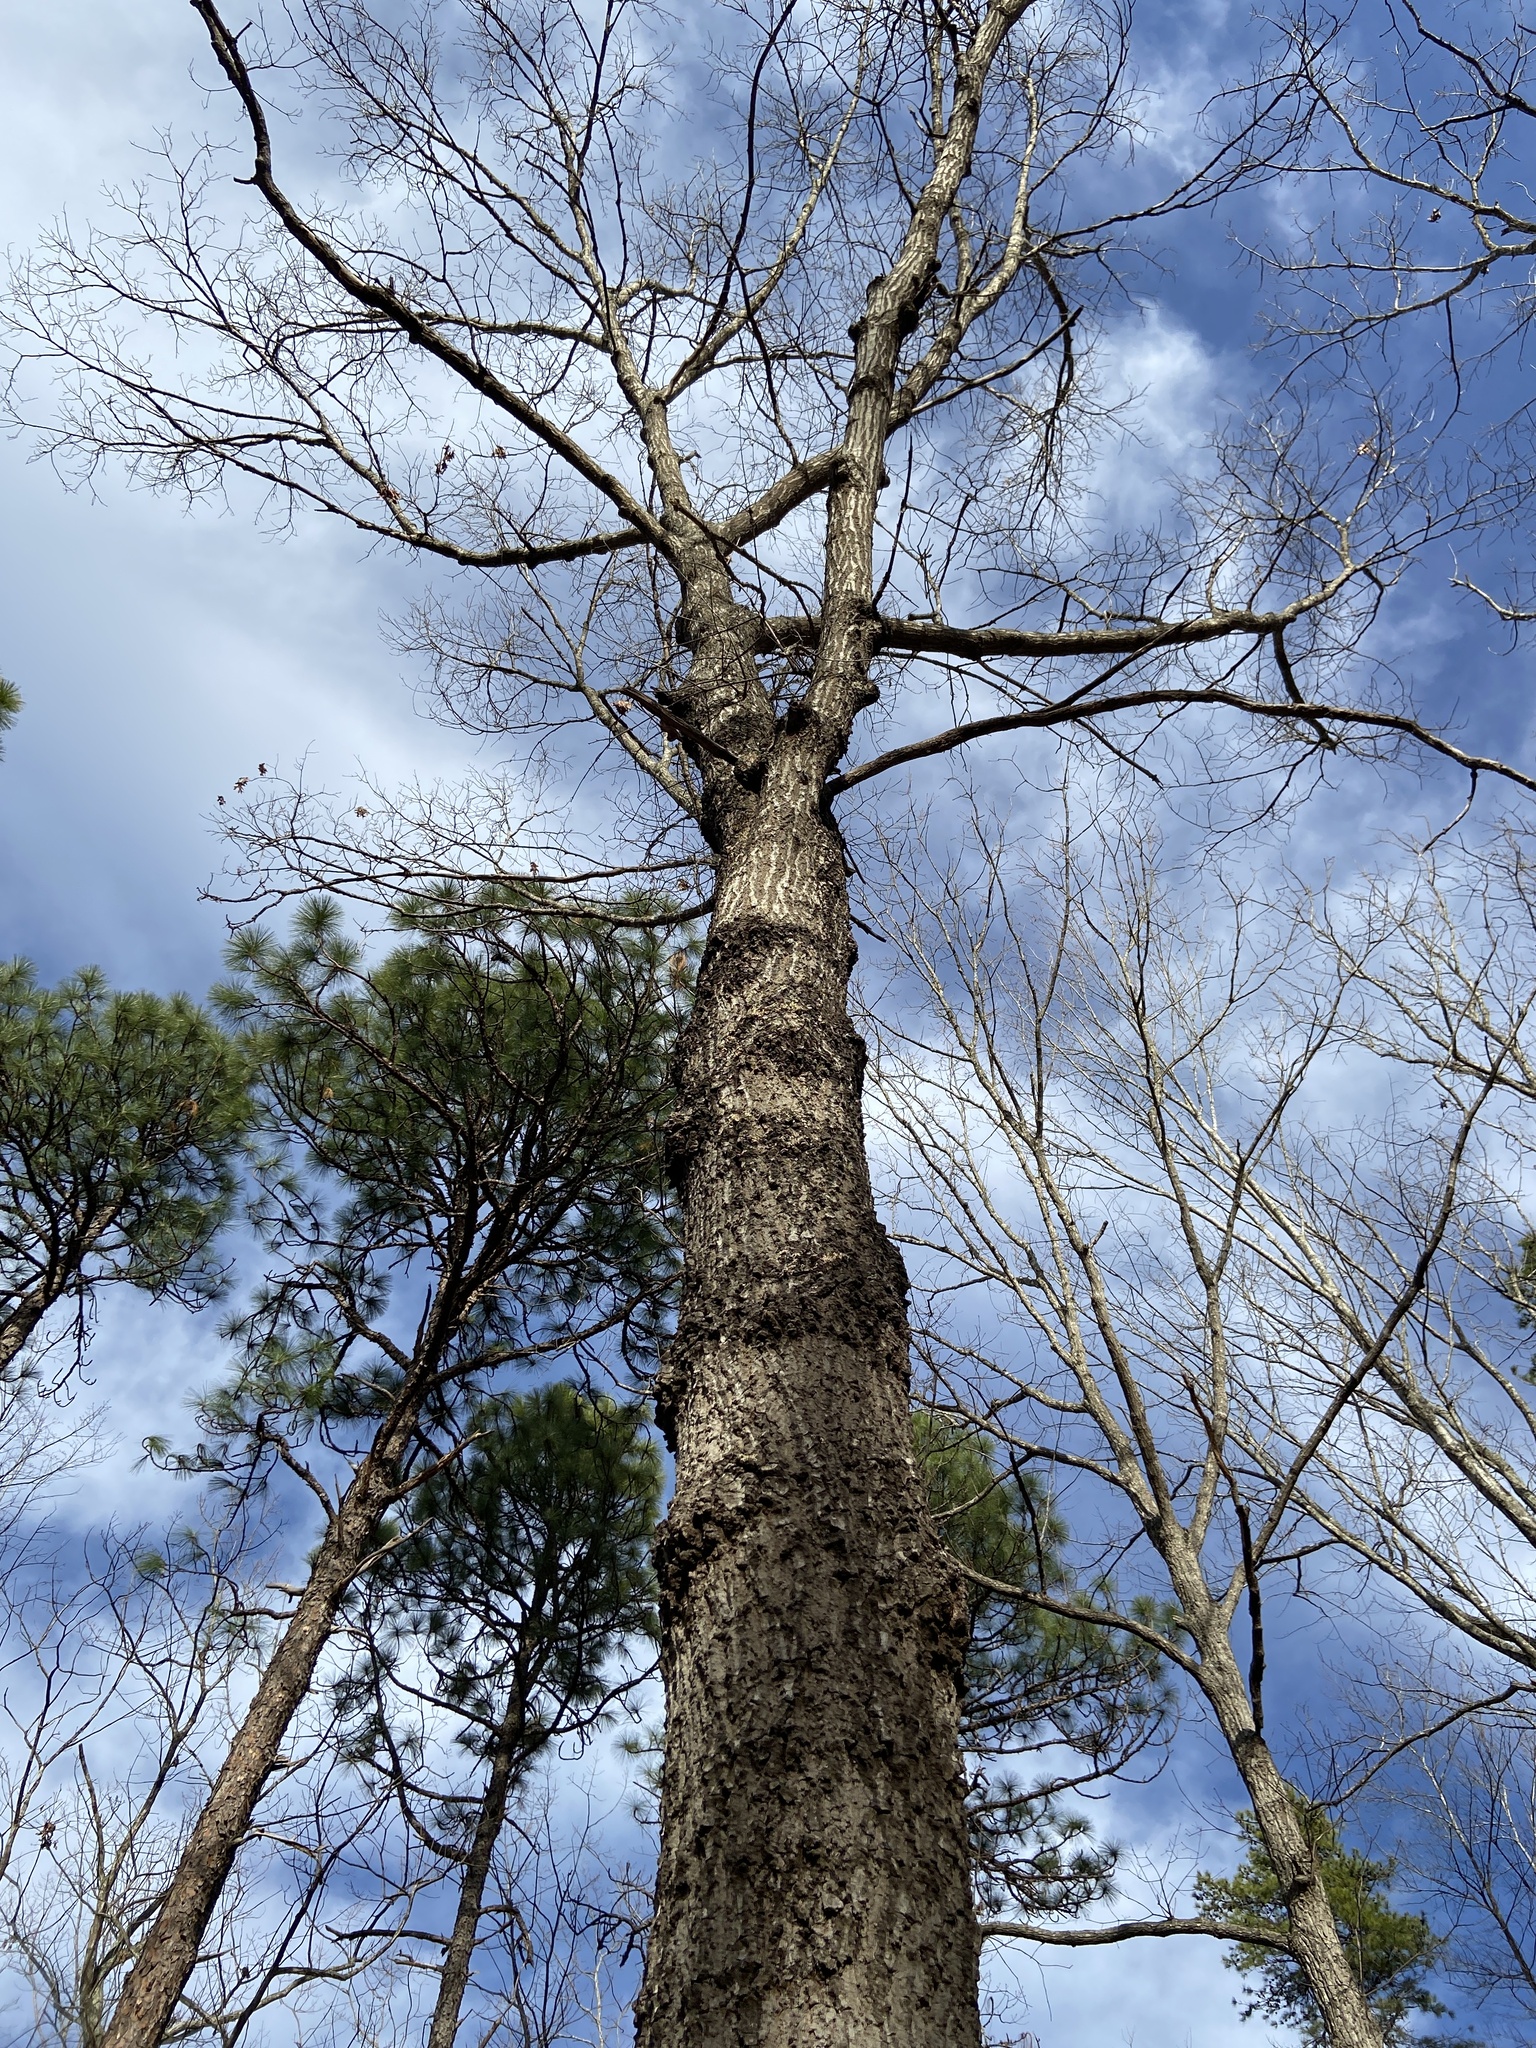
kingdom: Plantae
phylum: Tracheophyta
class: Magnoliopsida
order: Fagales
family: Fagaceae
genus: Quercus
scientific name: Quercus coccinea
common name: Scarlet oak
